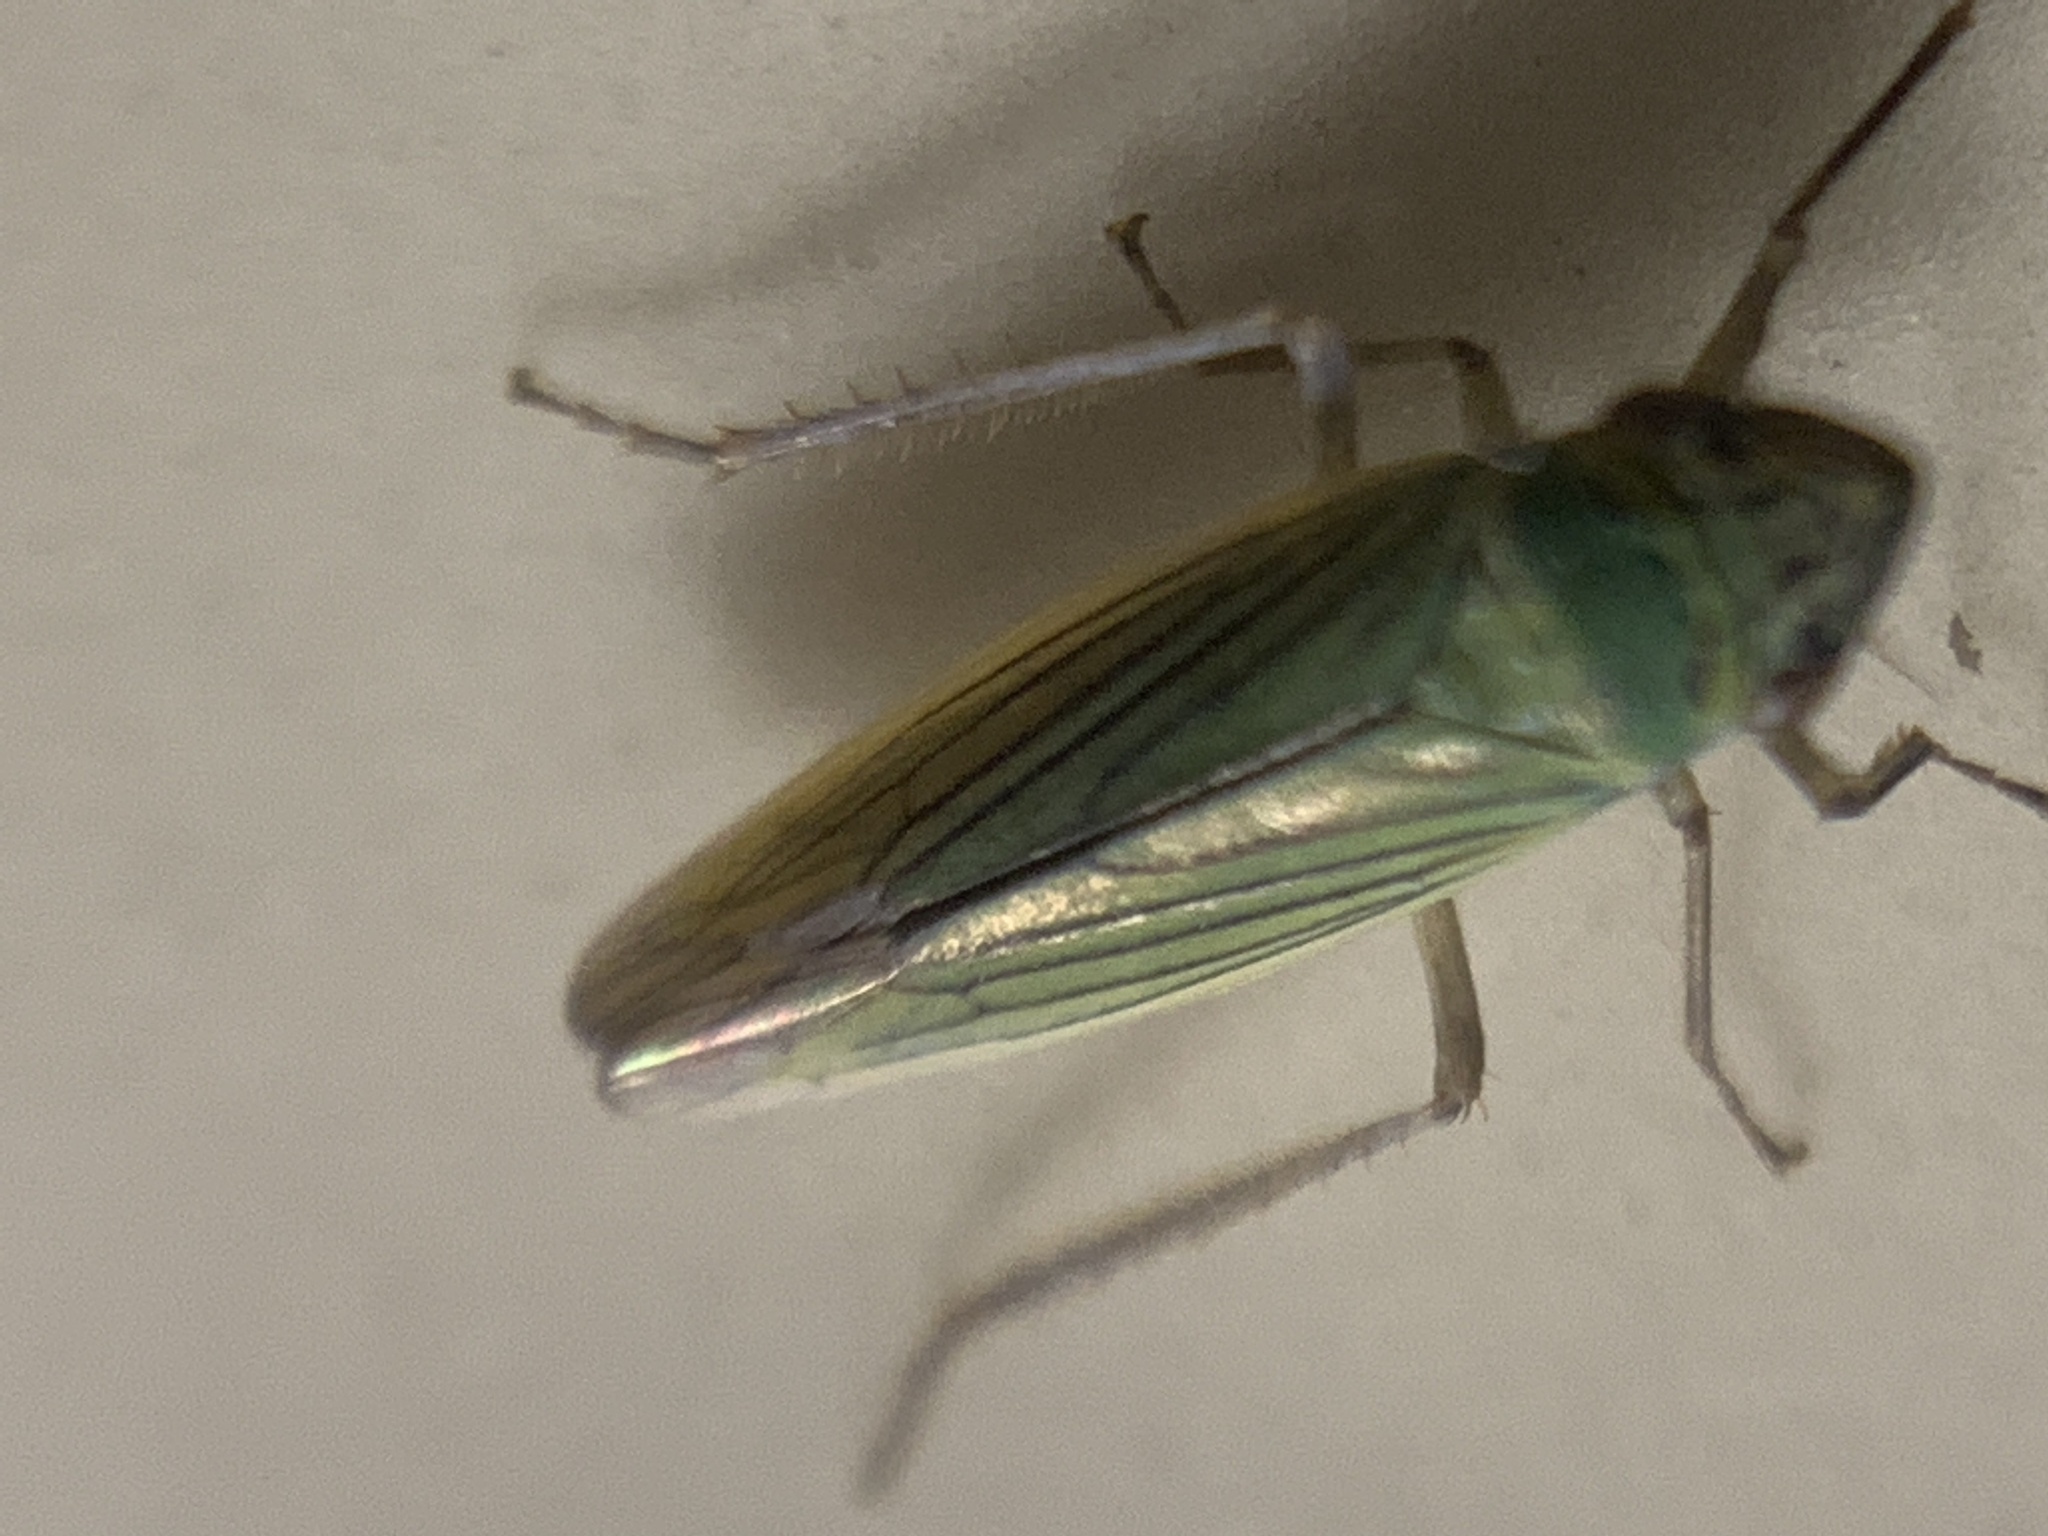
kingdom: Animalia
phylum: Arthropoda
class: Insecta
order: Hemiptera
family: Cicadellidae
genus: Syncharina
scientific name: Syncharina argentina
